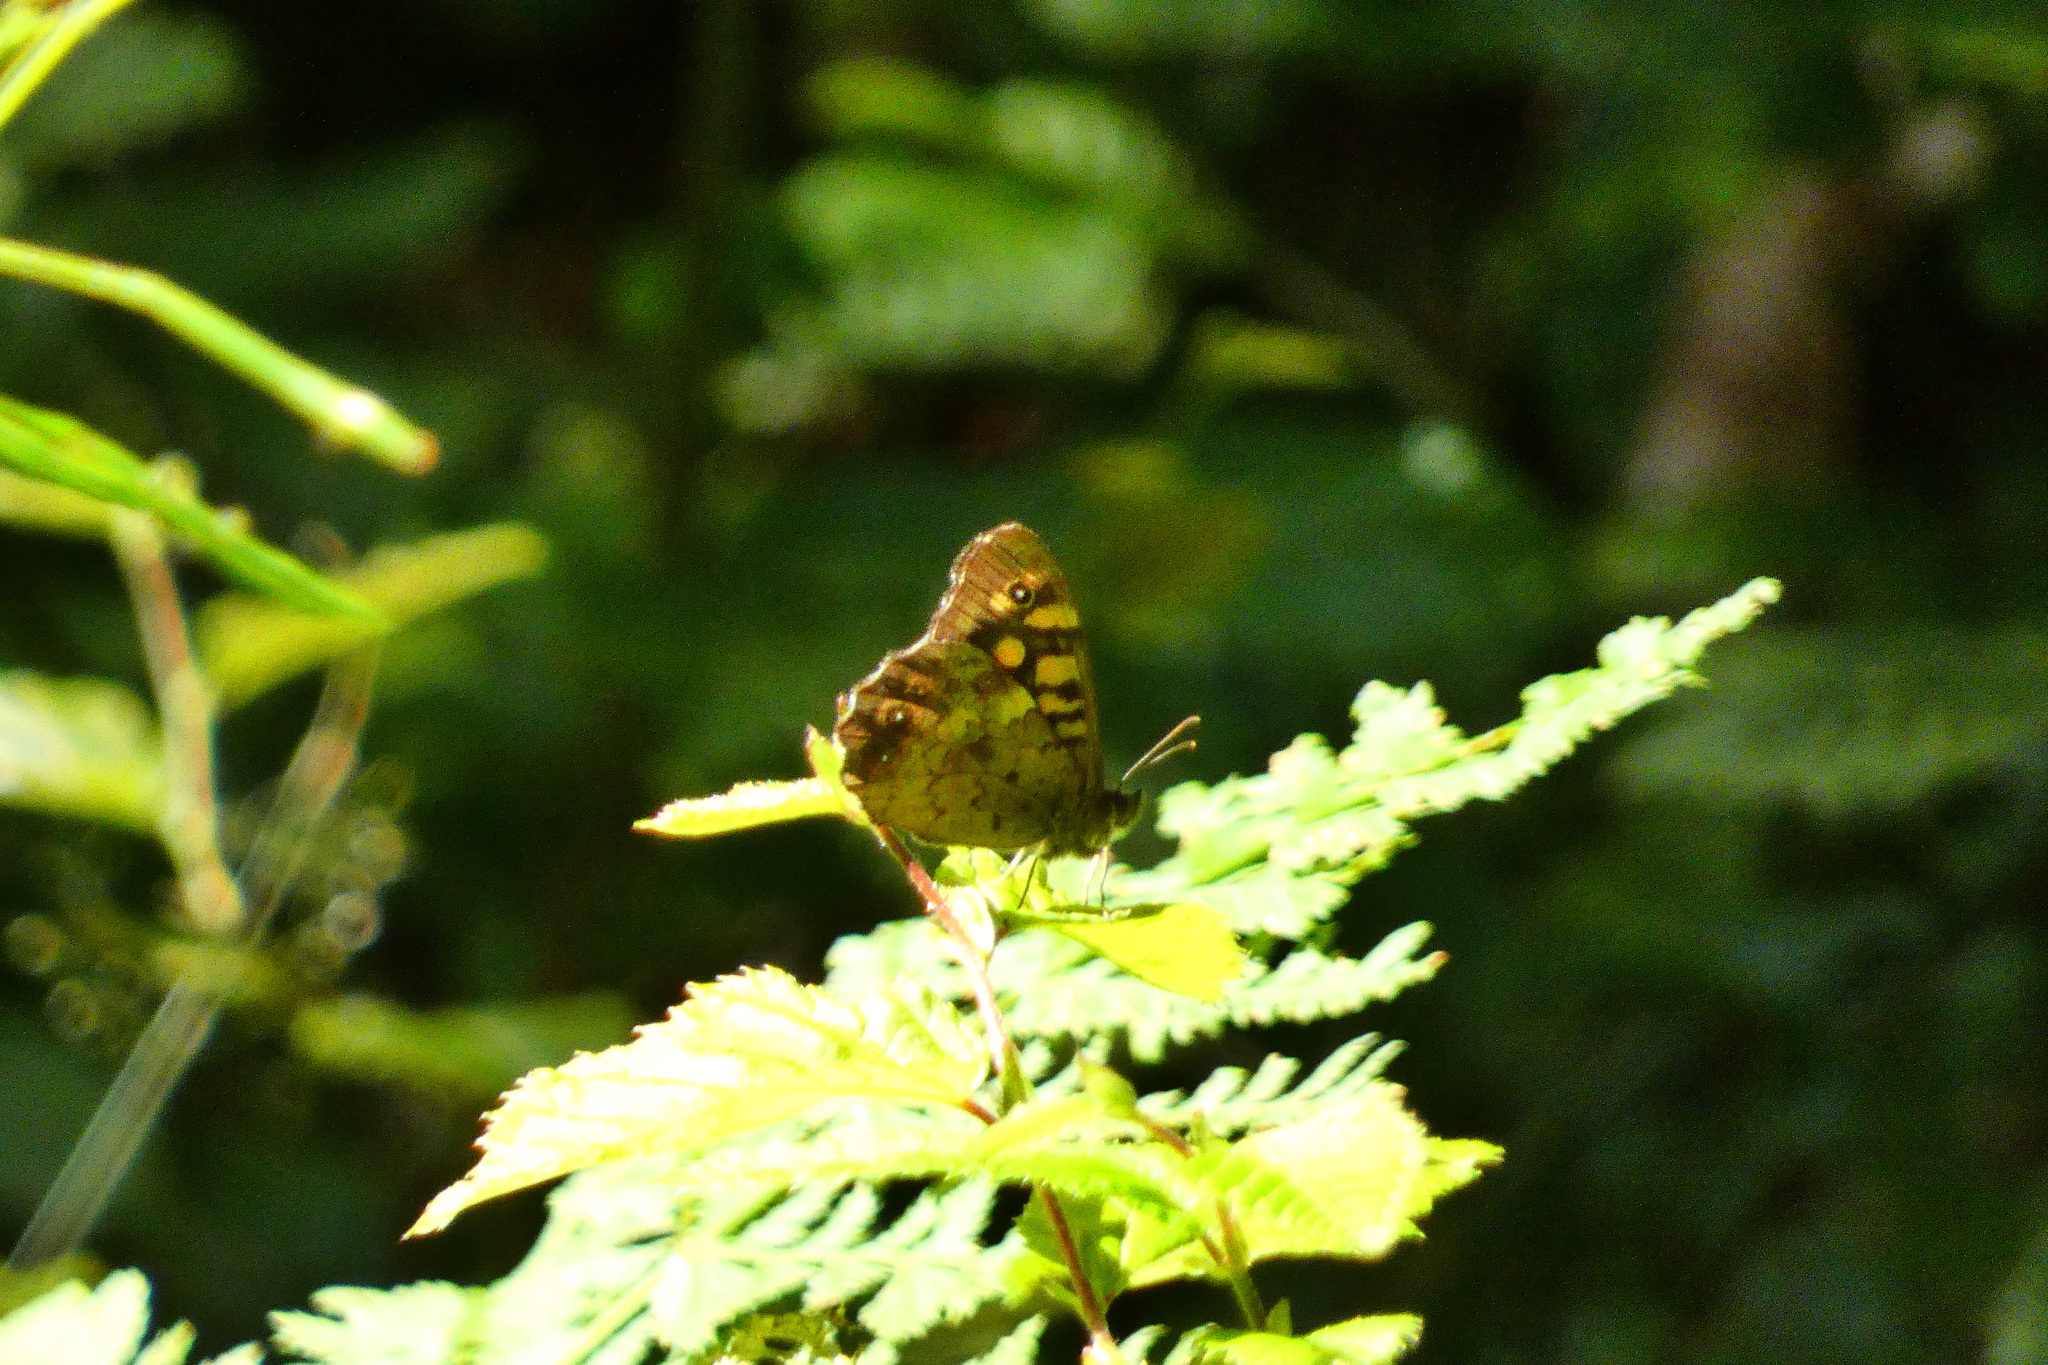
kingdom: Animalia
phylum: Arthropoda
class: Insecta
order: Lepidoptera
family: Nymphalidae
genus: Pararge
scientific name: Pararge aegeria
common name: Speckled wood
